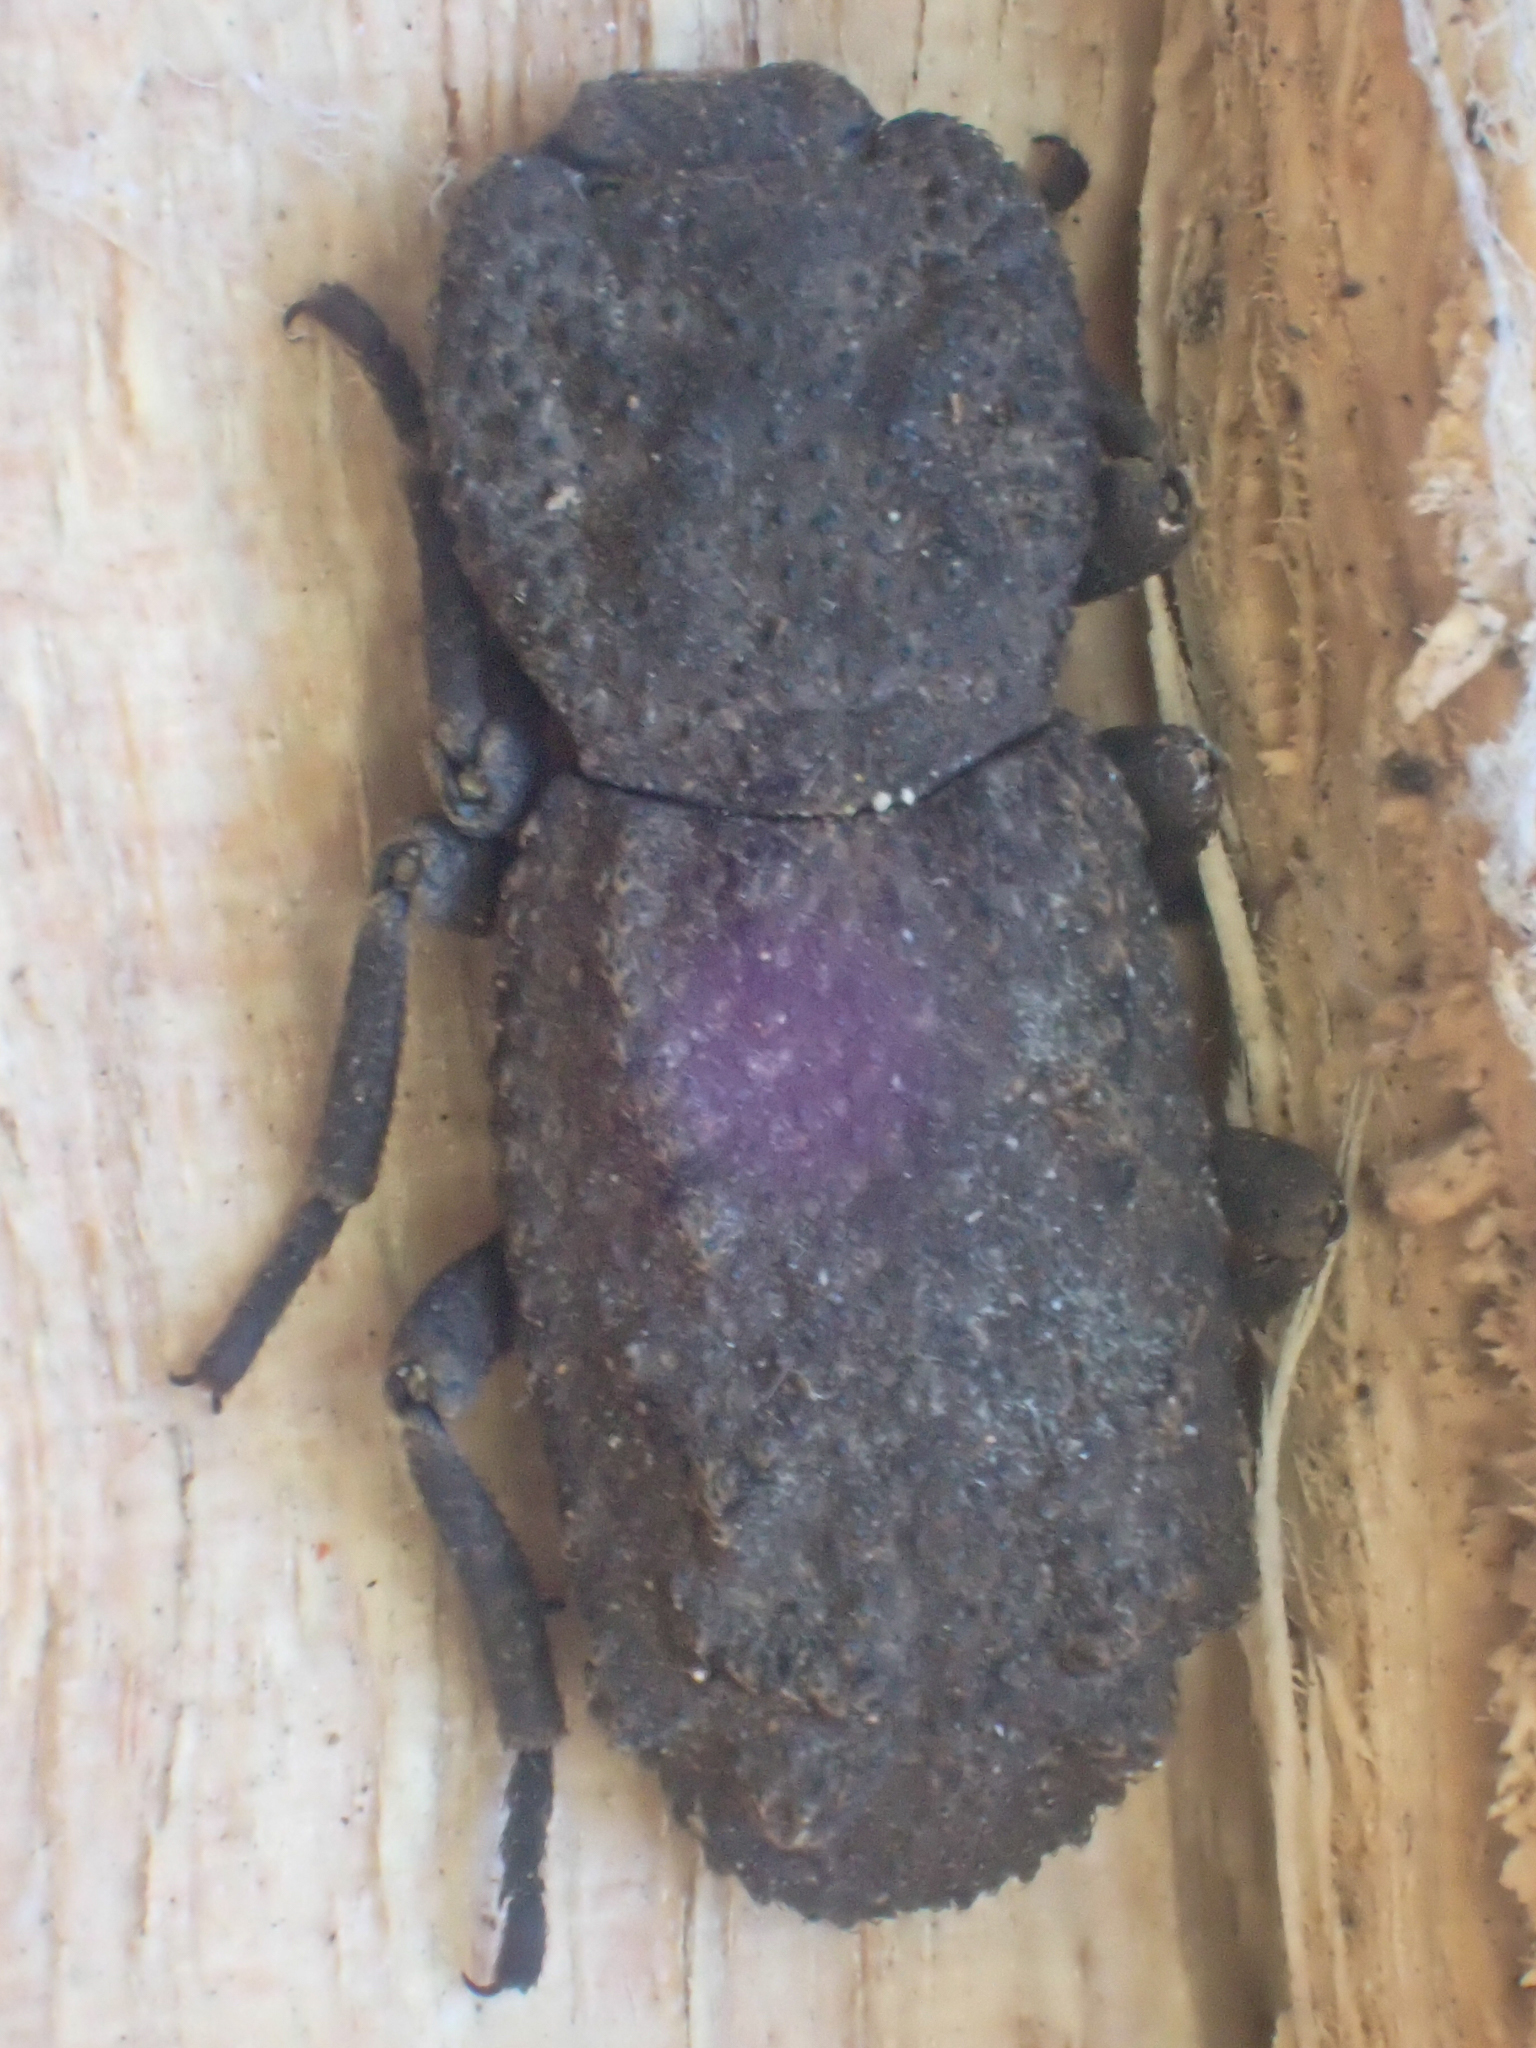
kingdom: Animalia
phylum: Arthropoda
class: Insecta
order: Coleoptera
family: Zopheridae
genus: Phloeodes
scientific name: Phloeodes plicatus
